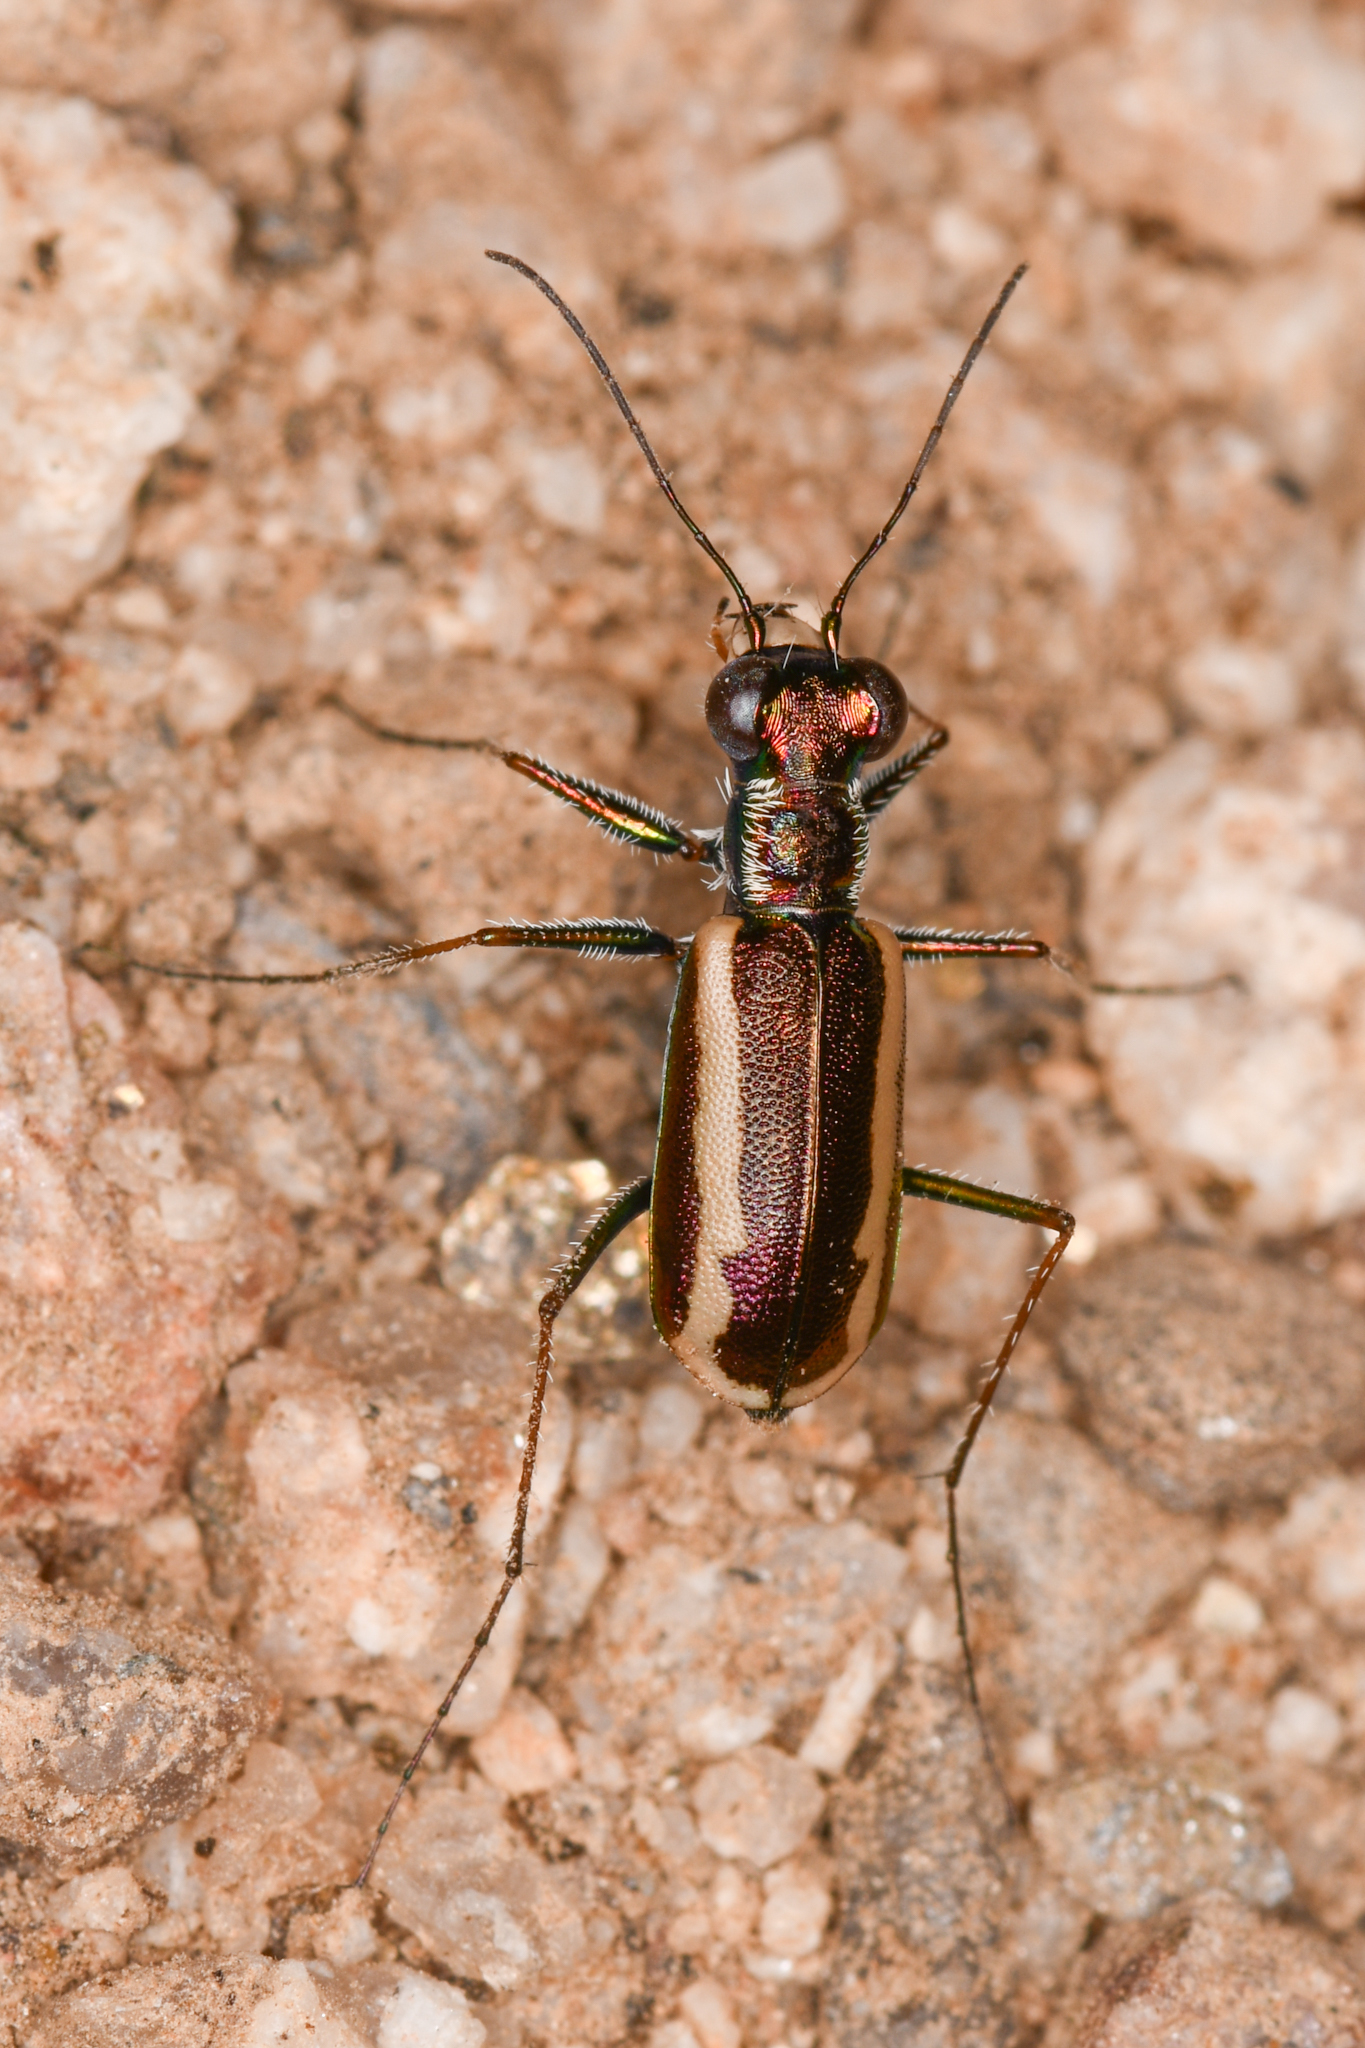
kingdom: Animalia
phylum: Arthropoda
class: Insecta
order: Coleoptera
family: Carabidae
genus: Cylindera
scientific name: Cylindera lemniscata
